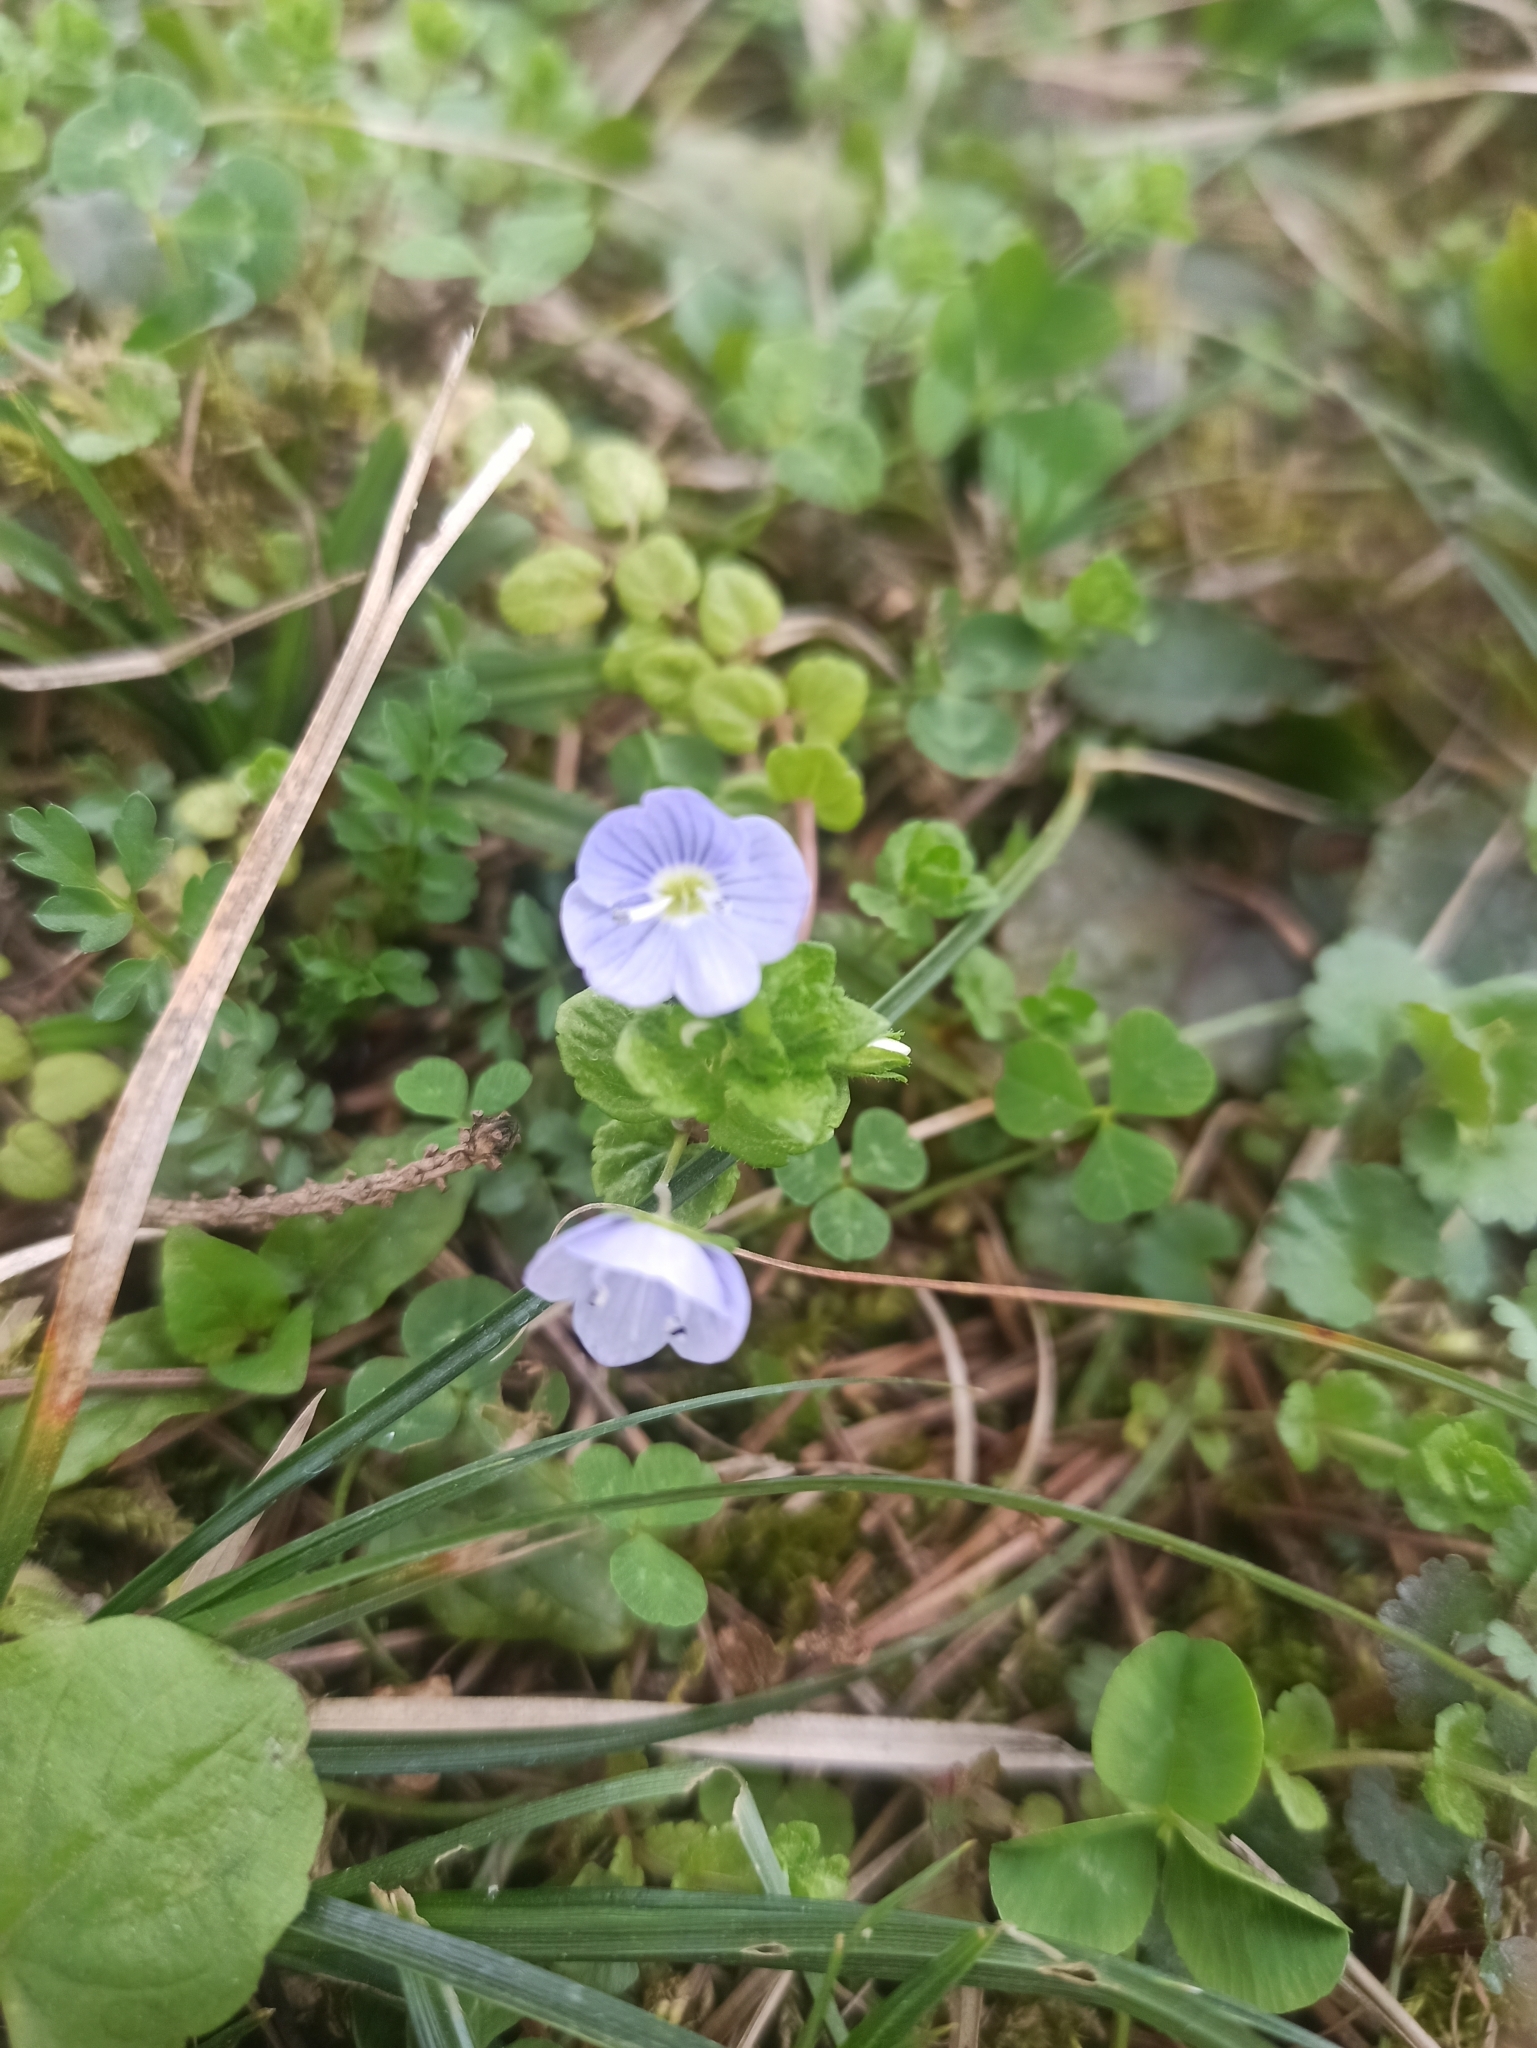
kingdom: Plantae
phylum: Tracheophyta
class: Magnoliopsida
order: Lamiales
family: Plantaginaceae
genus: Veronica
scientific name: Veronica filiformis
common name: Slender speedwell
